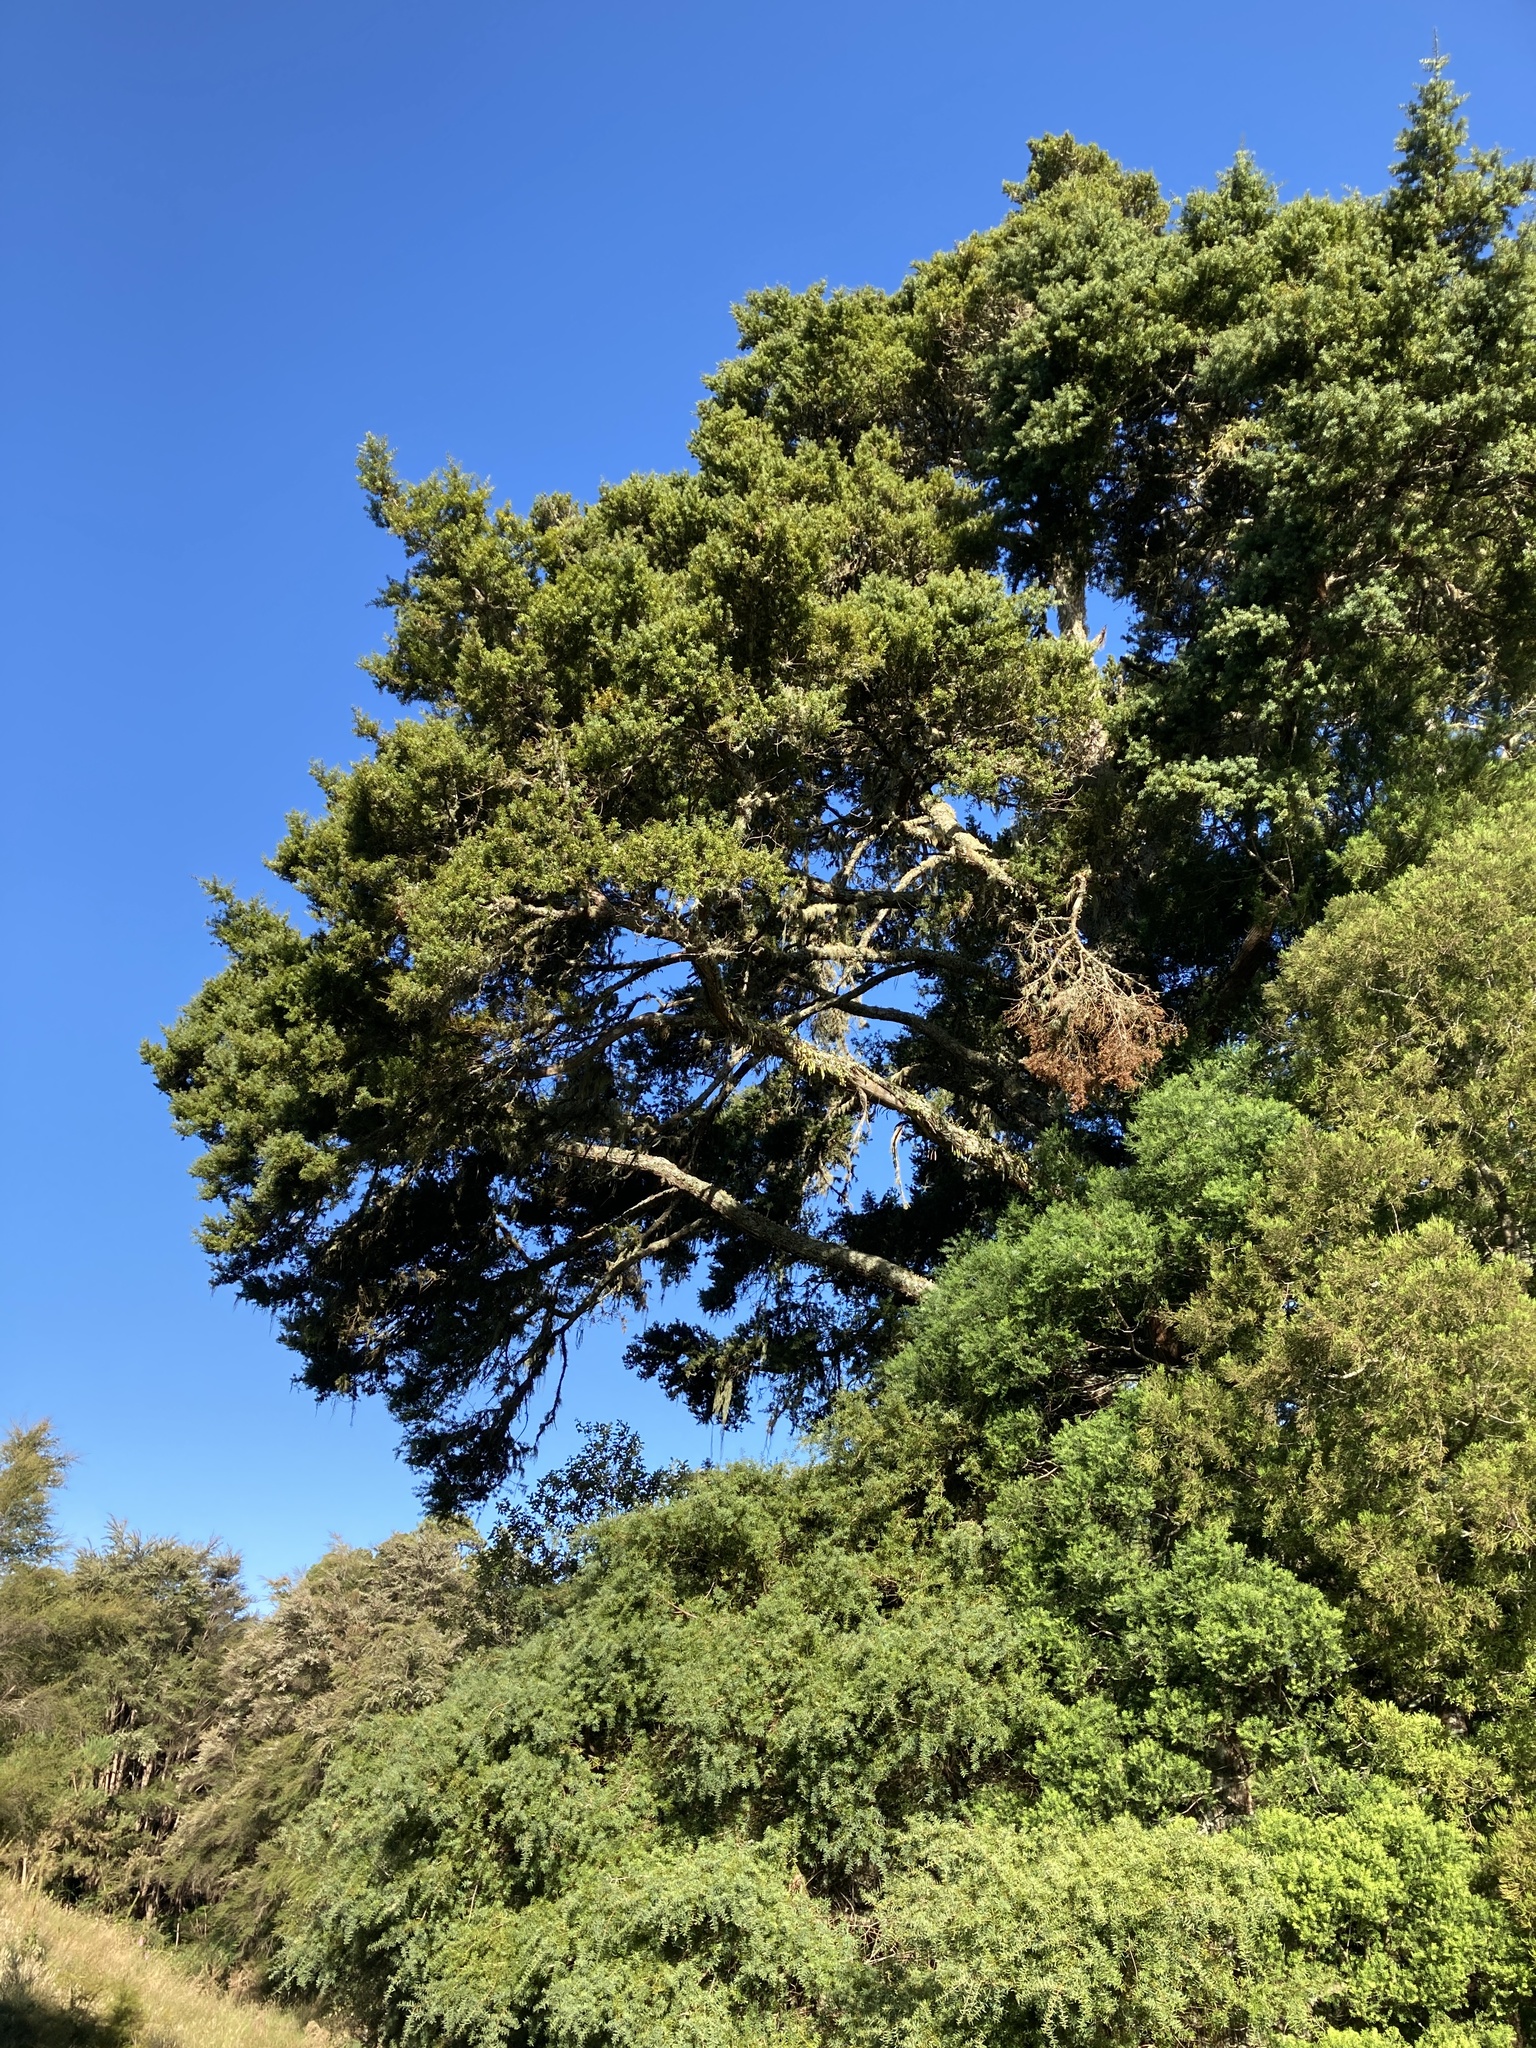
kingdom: Plantae
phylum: Tracheophyta
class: Pinopsida
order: Pinales
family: Podocarpaceae
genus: Podocarpus
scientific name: Podocarpus totara
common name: Totara
